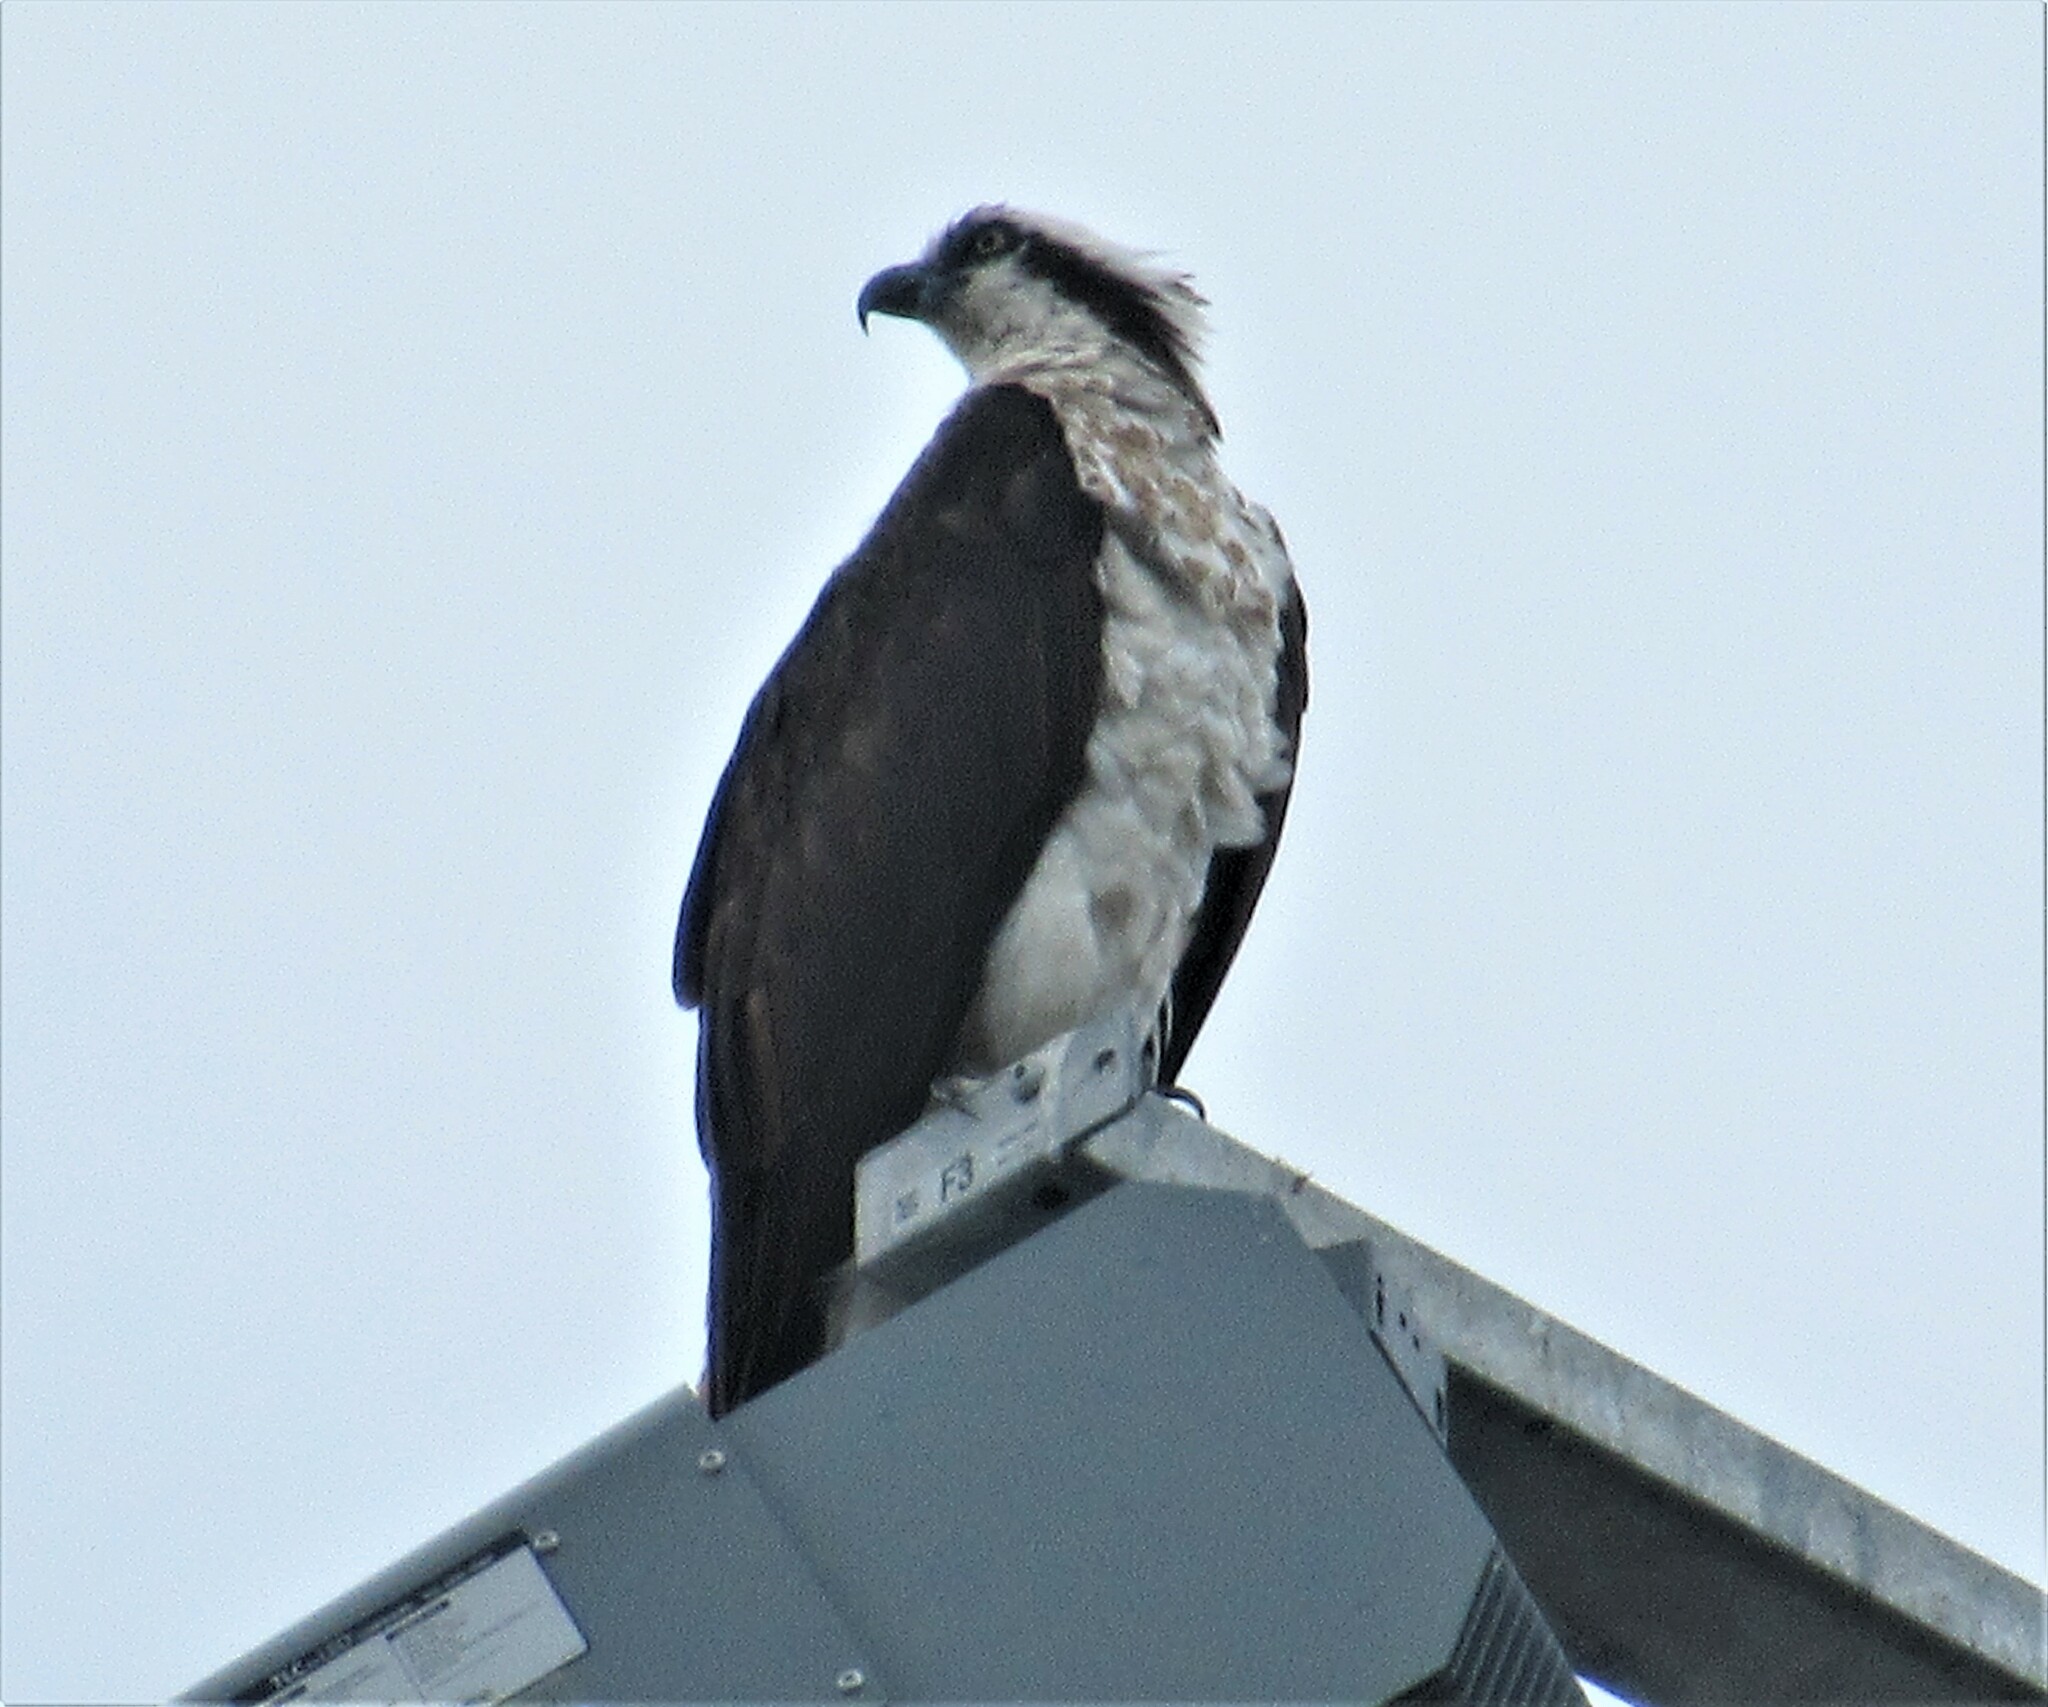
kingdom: Animalia
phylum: Chordata
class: Aves
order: Accipitriformes
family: Pandionidae
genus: Pandion
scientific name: Pandion haliaetus
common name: Osprey
